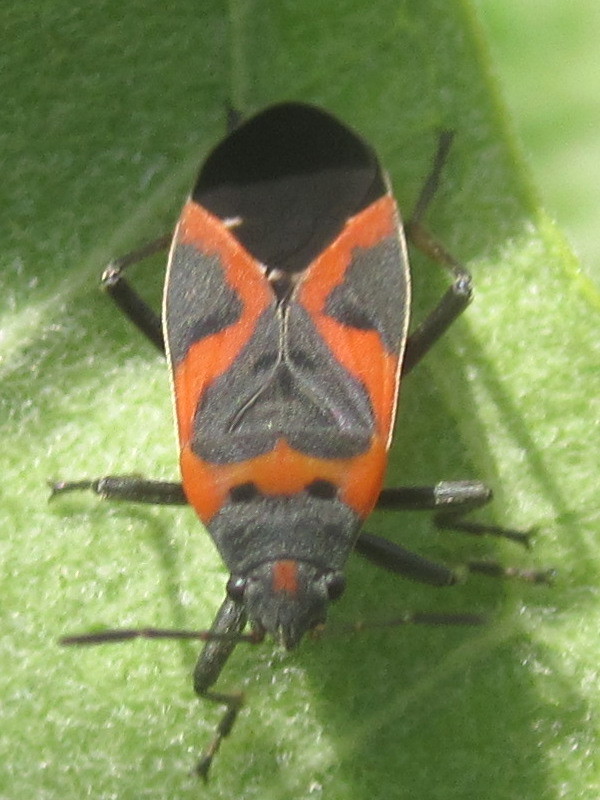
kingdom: Animalia
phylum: Arthropoda
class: Insecta
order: Hemiptera
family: Lygaeidae
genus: Lygaeus
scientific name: Lygaeus kalmii
